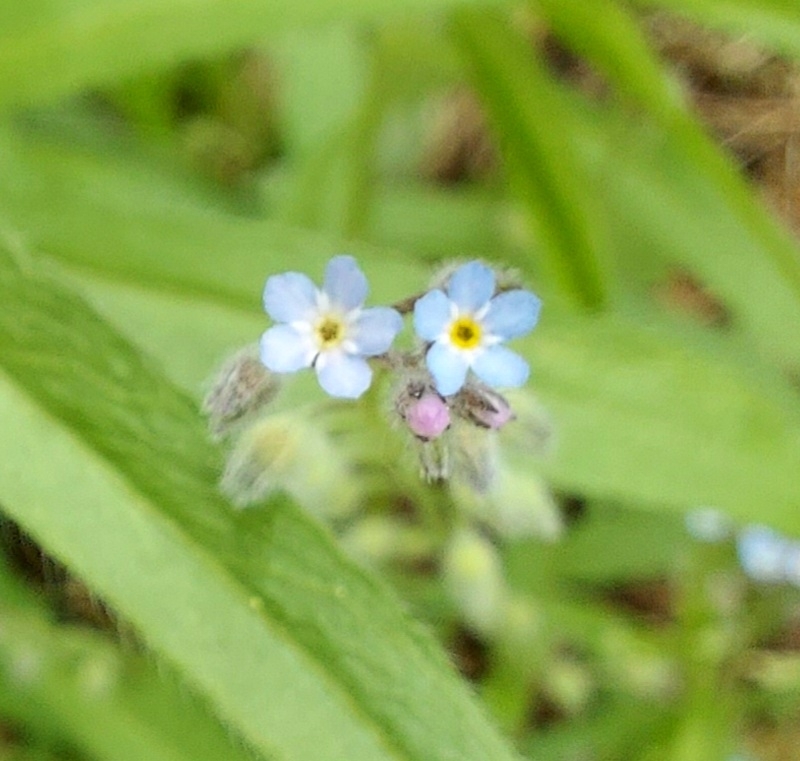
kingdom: Plantae
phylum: Tracheophyta
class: Magnoliopsida
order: Boraginales
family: Boraginaceae
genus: Myosotis
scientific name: Myosotis arvensis
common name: Field forget-me-not
